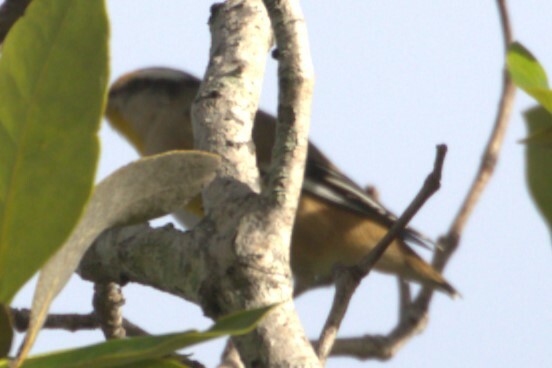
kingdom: Animalia
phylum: Chordata
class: Aves
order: Passeriformes
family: Pardalotidae
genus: Pardalotus
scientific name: Pardalotus striatus
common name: Striated pardalote
